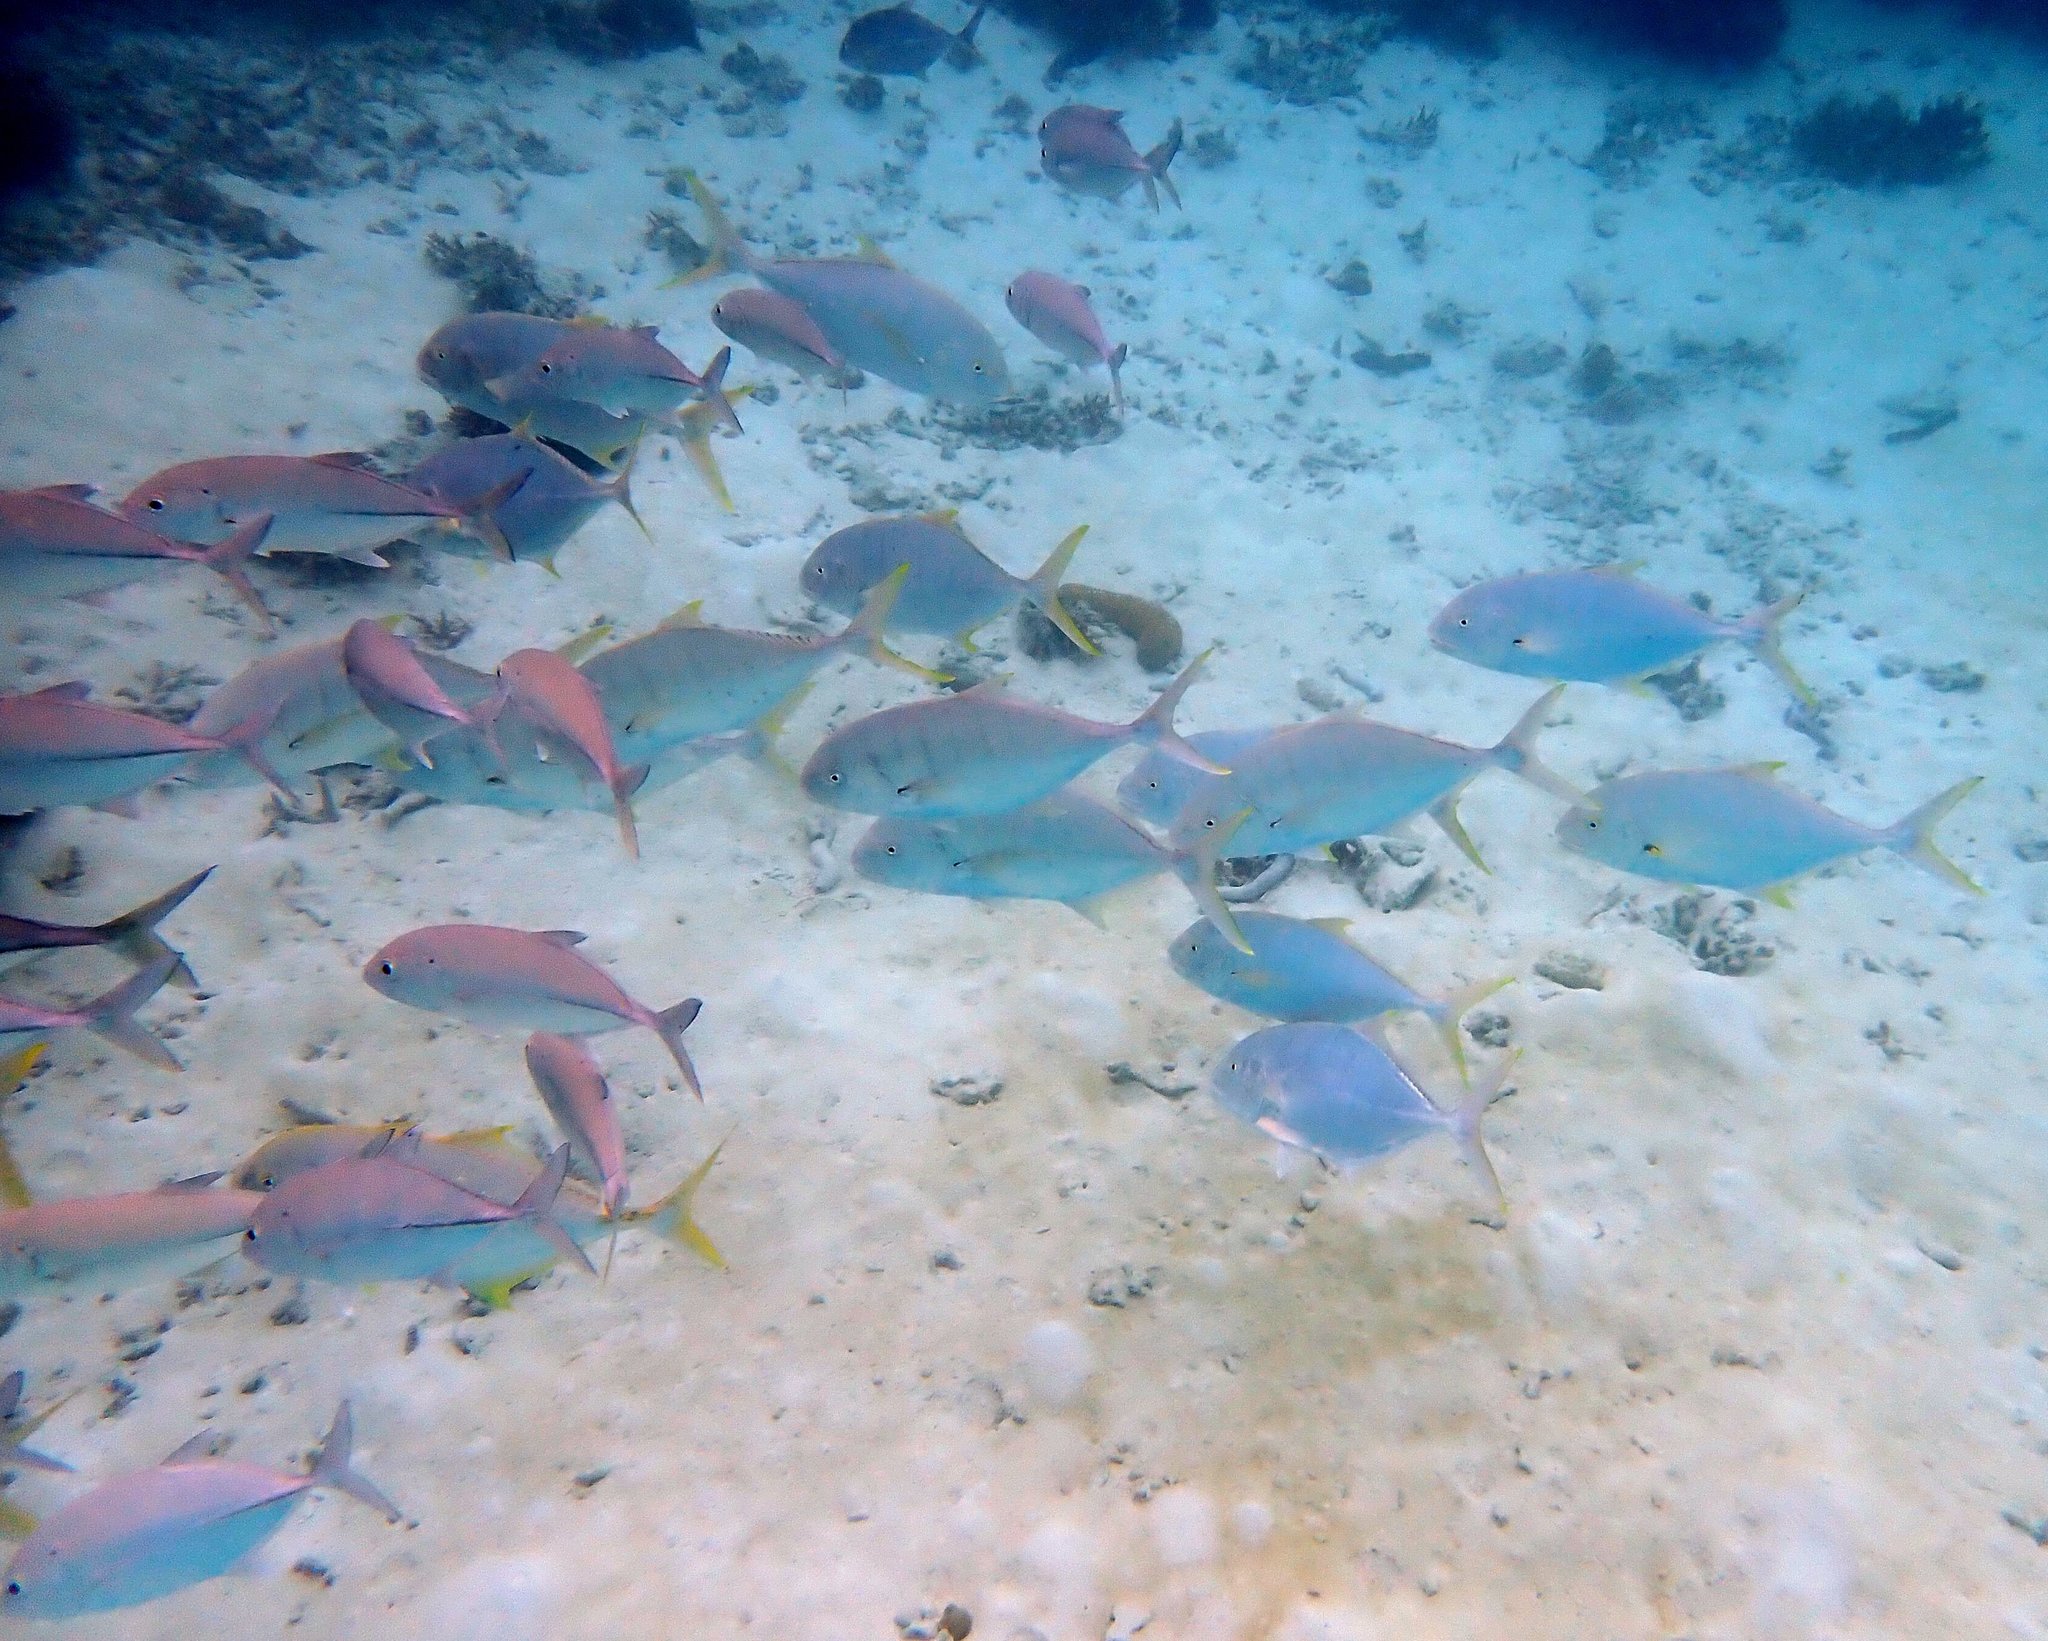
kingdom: Animalia
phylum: Chordata
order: Perciformes
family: Carangidae
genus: Gnathanodon
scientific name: Gnathanodon speciosus
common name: Golden toothless trevally
